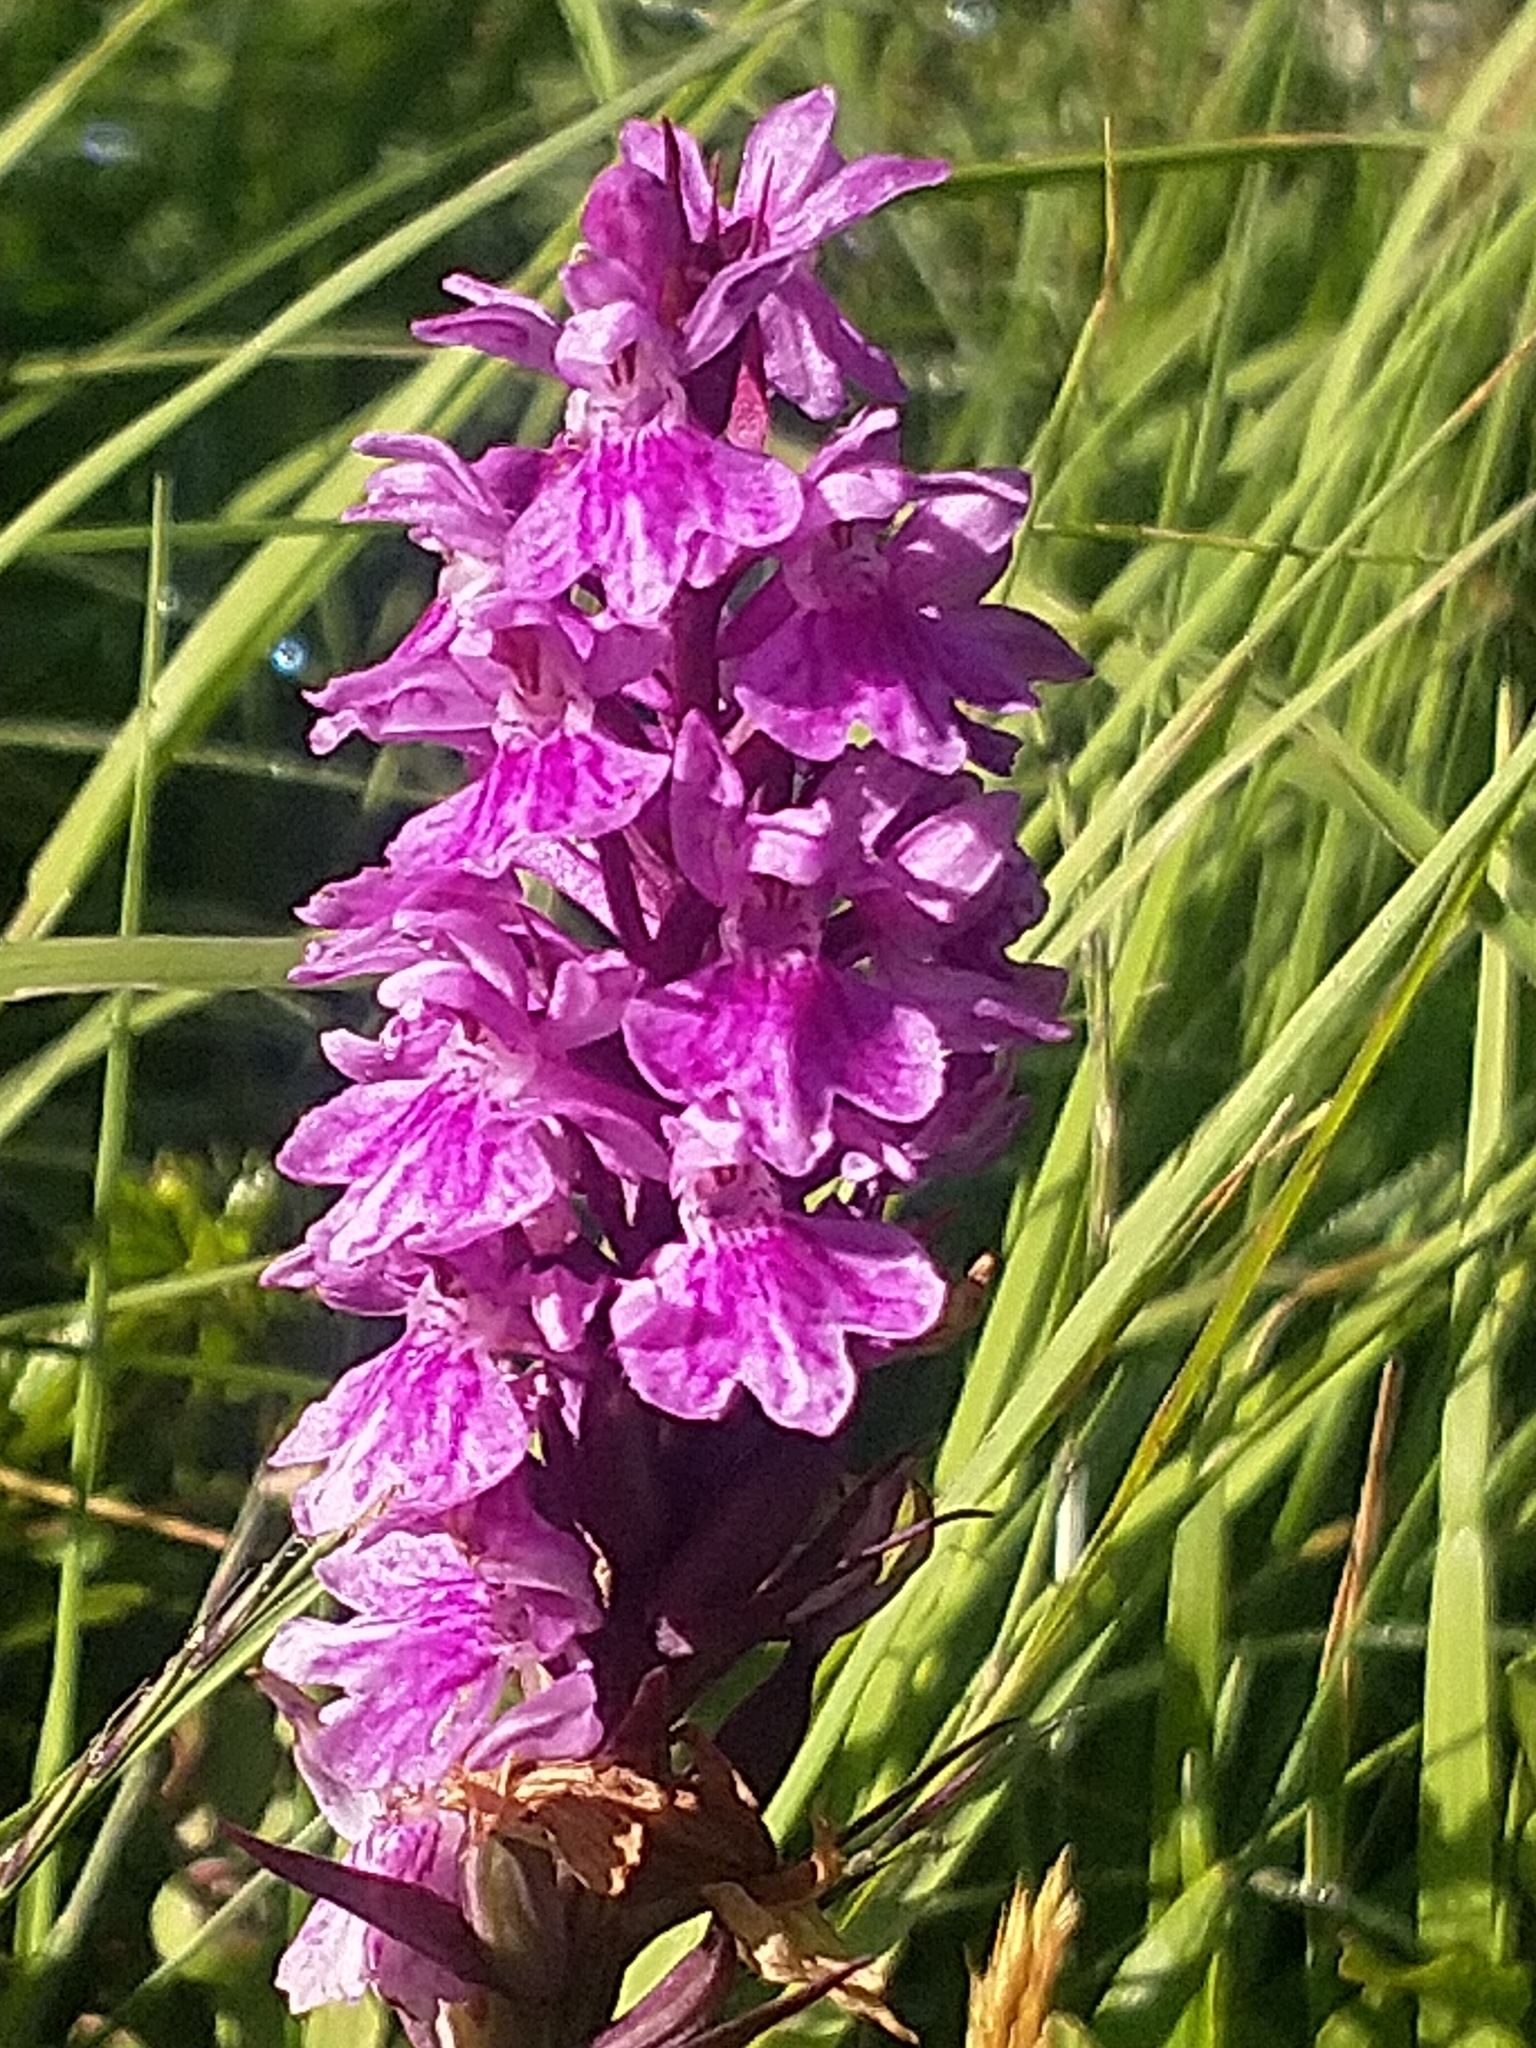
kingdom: Plantae
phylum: Tracheophyta
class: Liliopsida
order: Asparagales
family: Orchidaceae
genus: Dactylorhiza
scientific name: Dactylorhiza maculata
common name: Heath spotted-orchid
